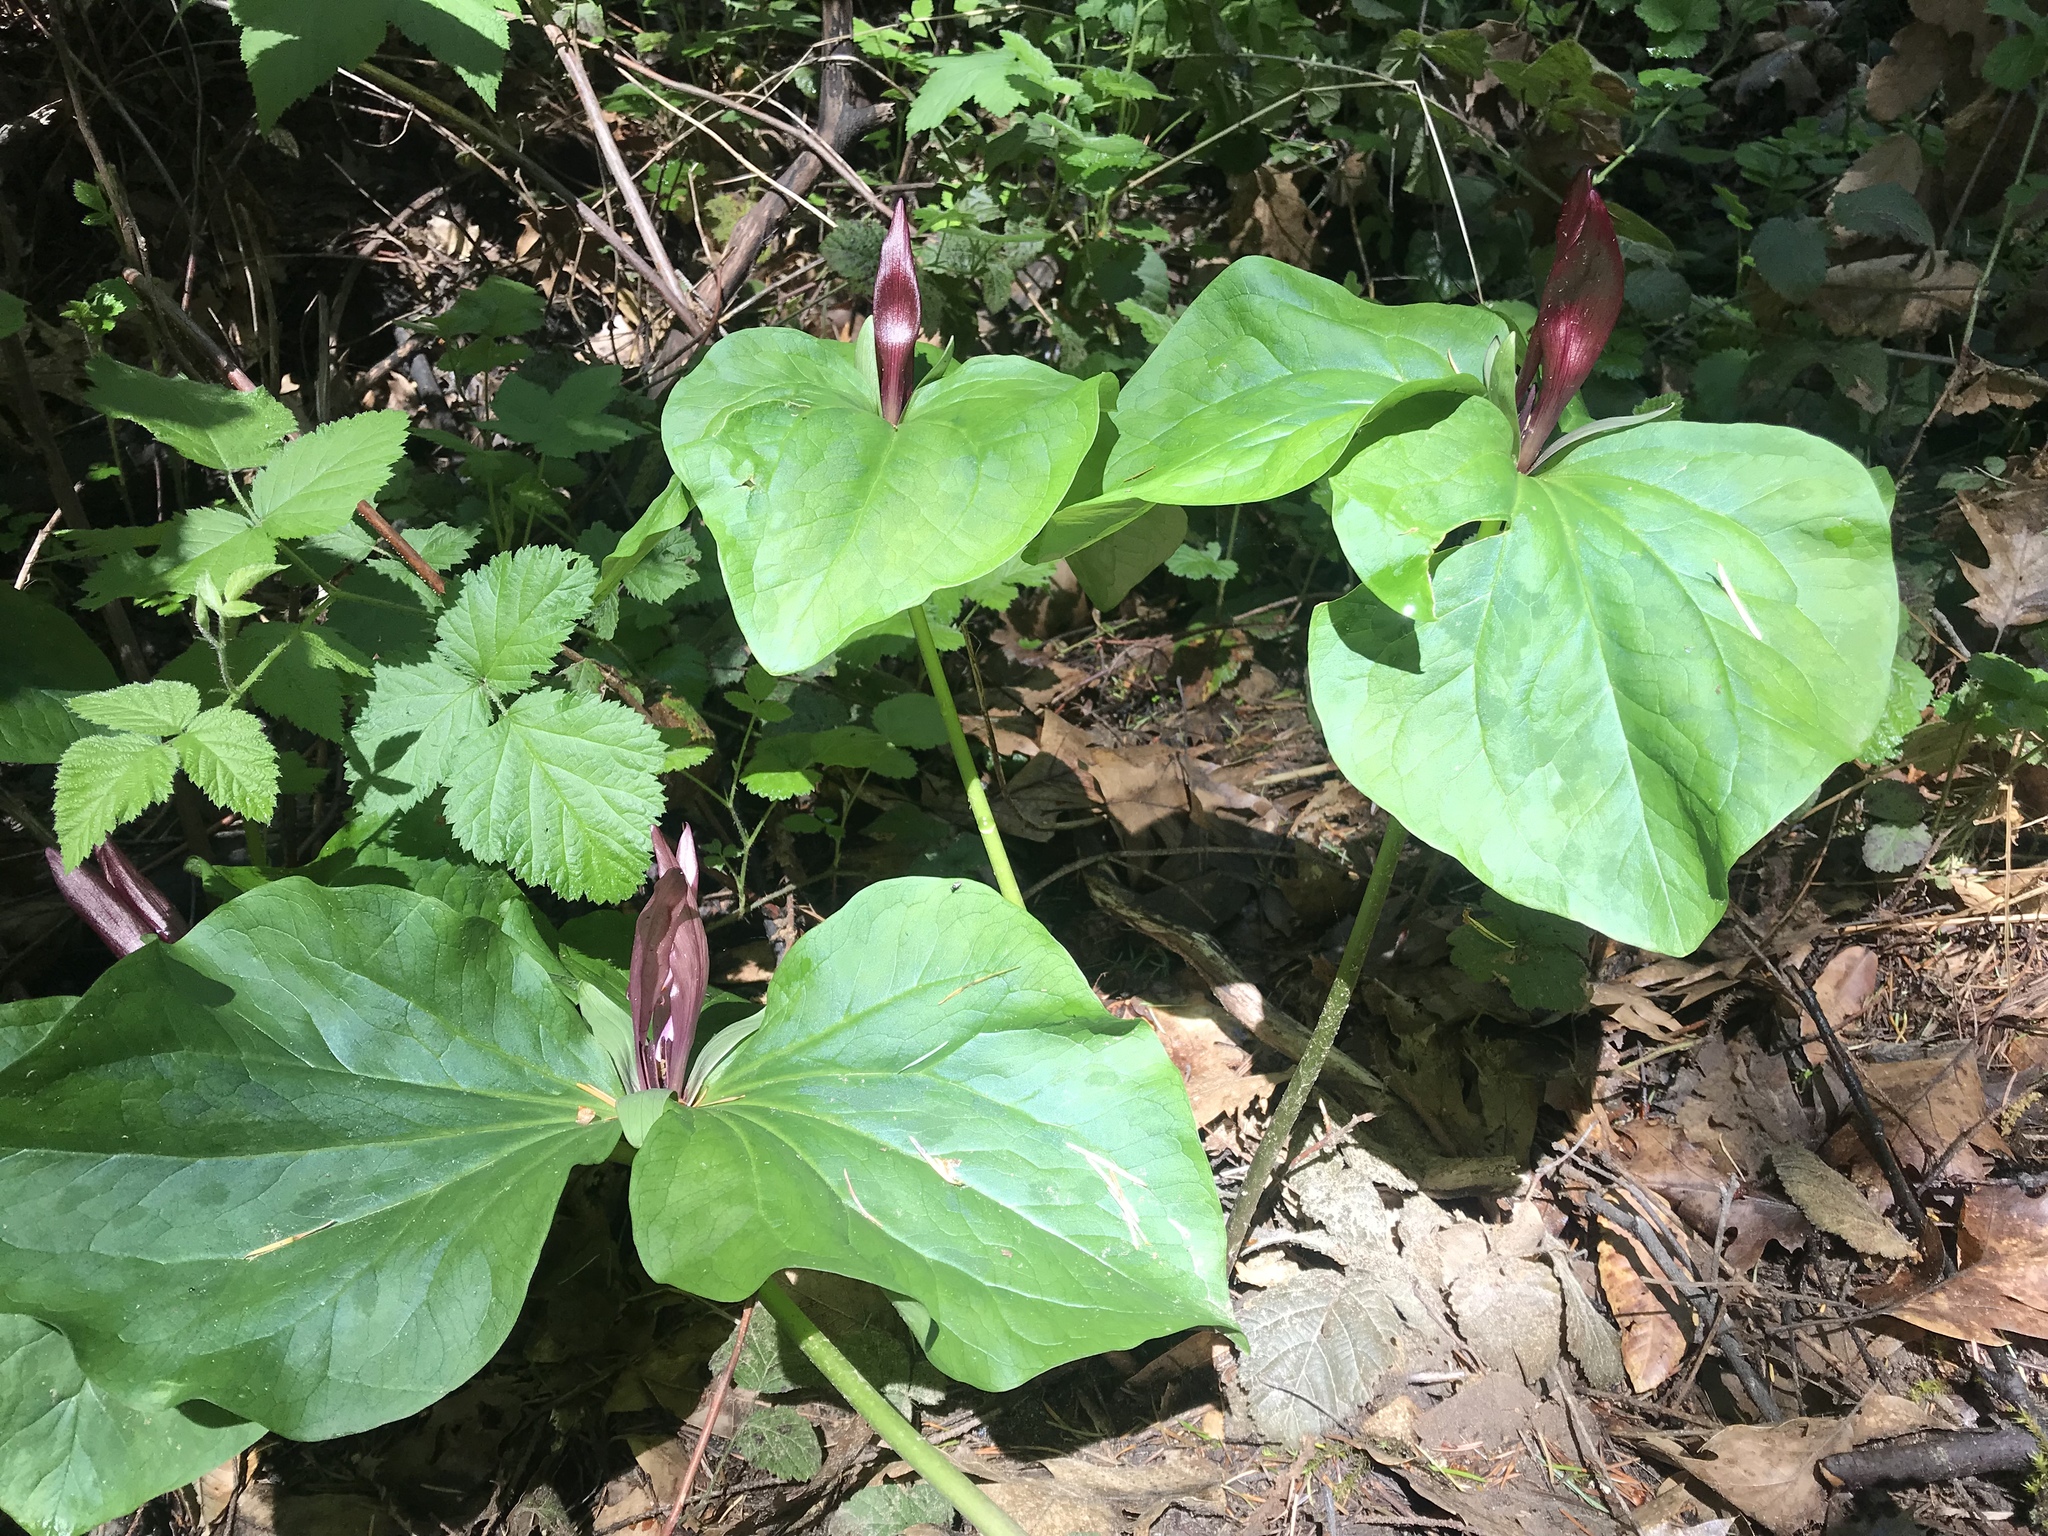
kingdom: Plantae
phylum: Tracheophyta
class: Liliopsida
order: Liliales
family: Melanthiaceae
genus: Trillium
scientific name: Trillium chloropetalum
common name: Giant trillium
